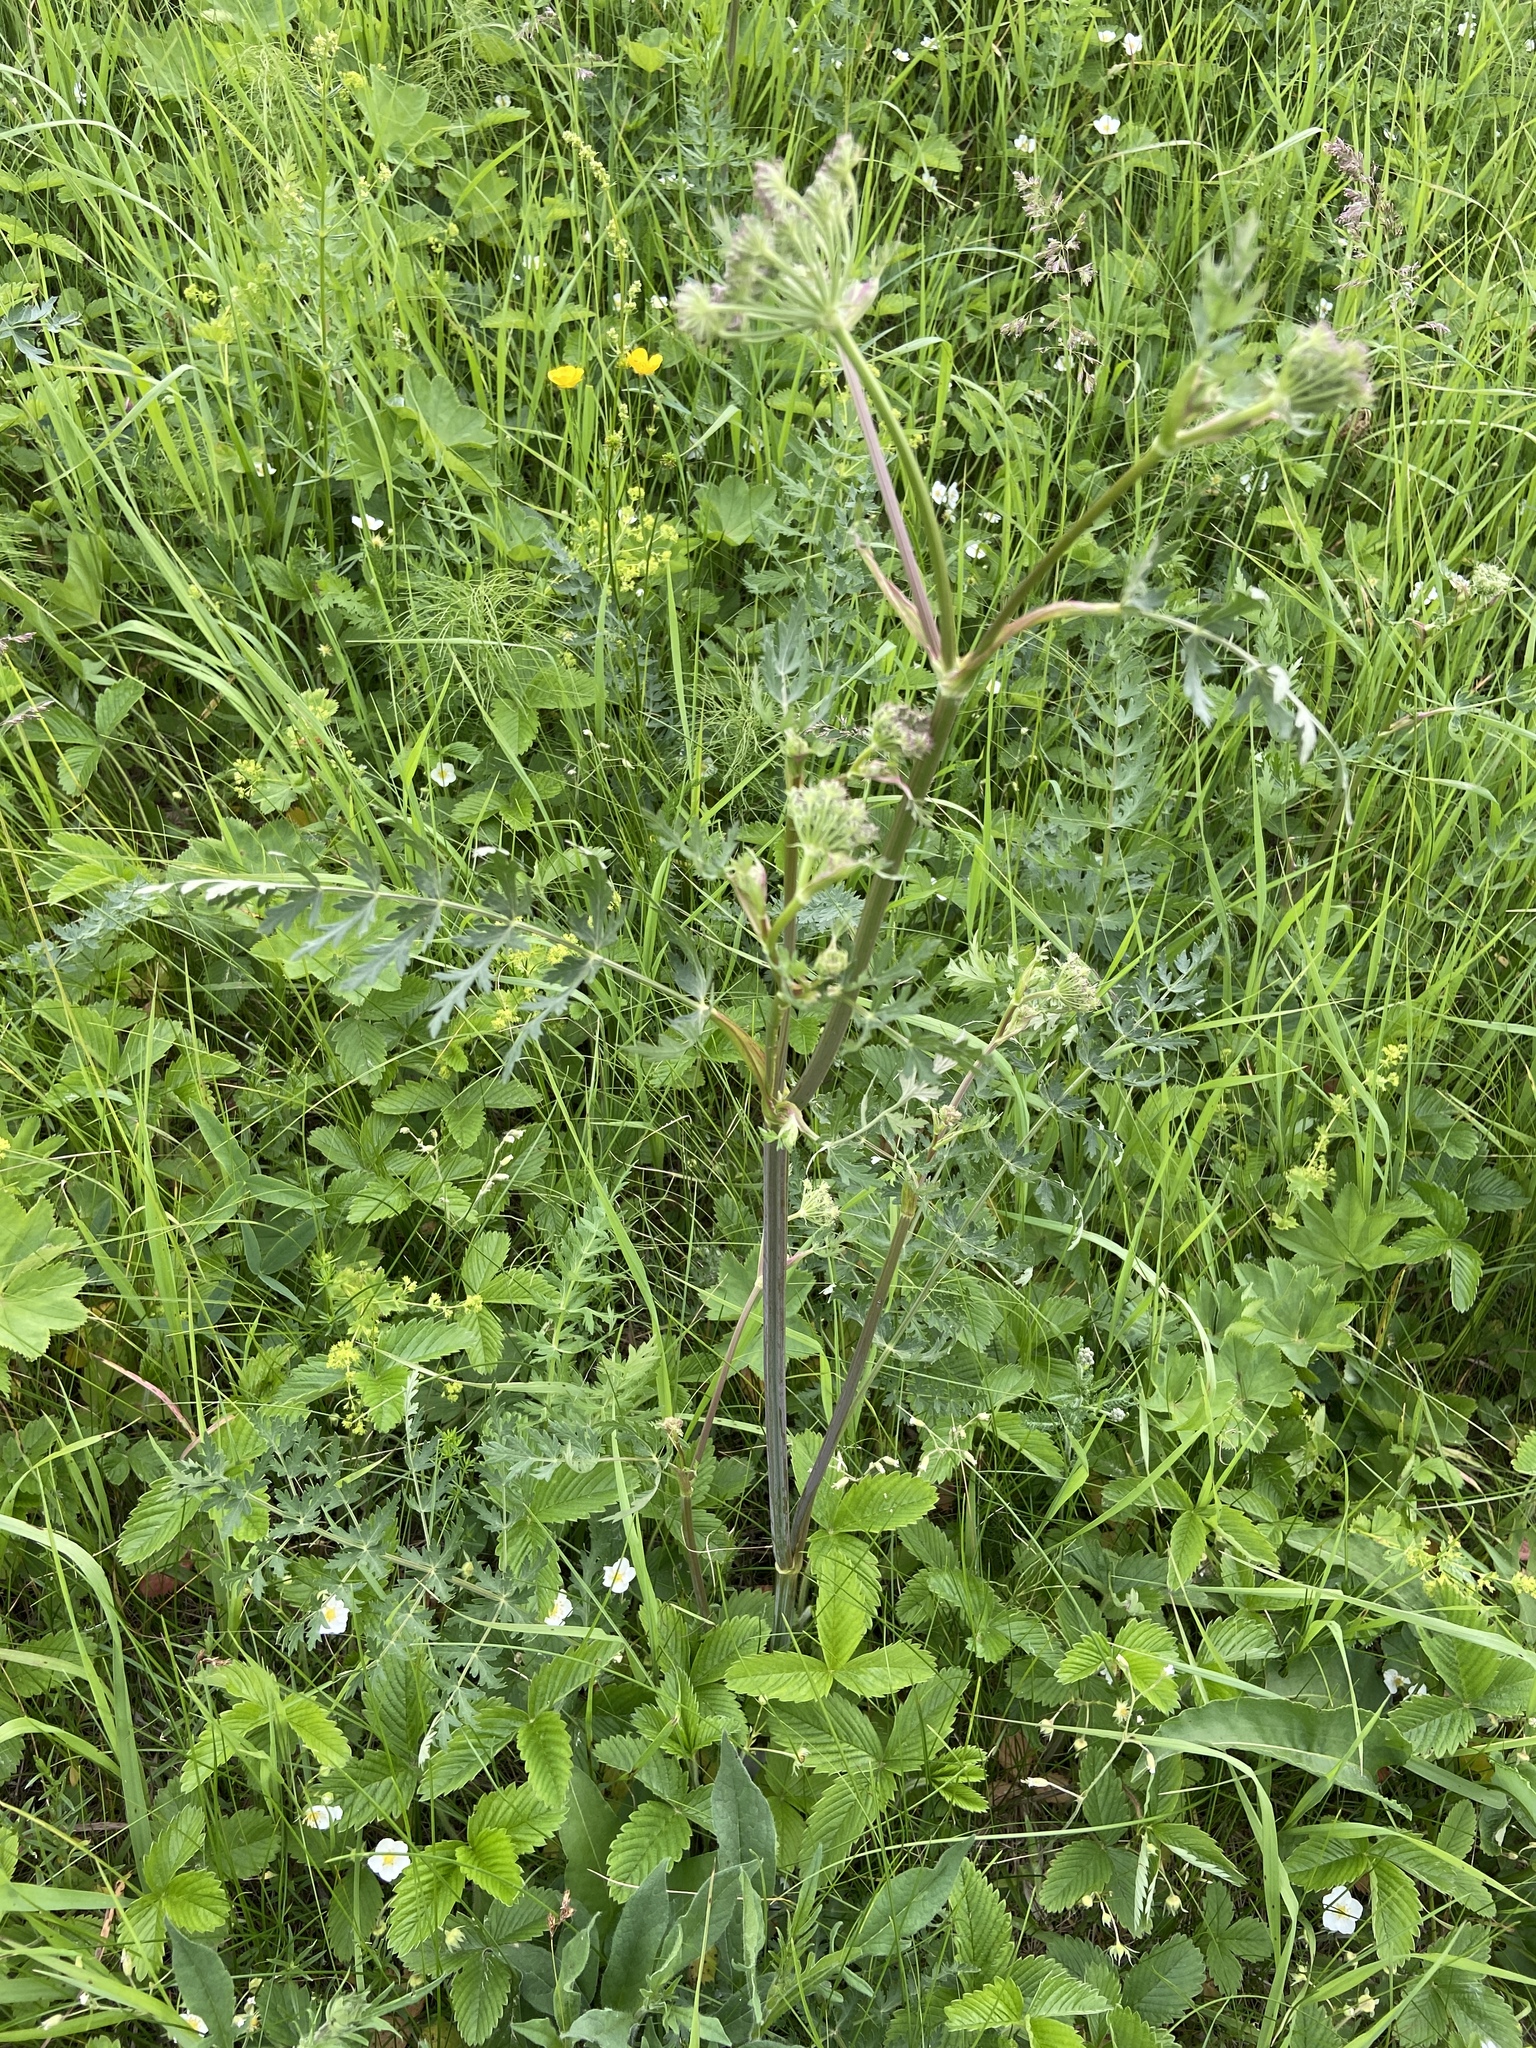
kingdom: Plantae
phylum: Tracheophyta
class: Magnoliopsida
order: Apiales
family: Apiaceae
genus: Seseli
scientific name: Seseli libanotis
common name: Mooncarrot
